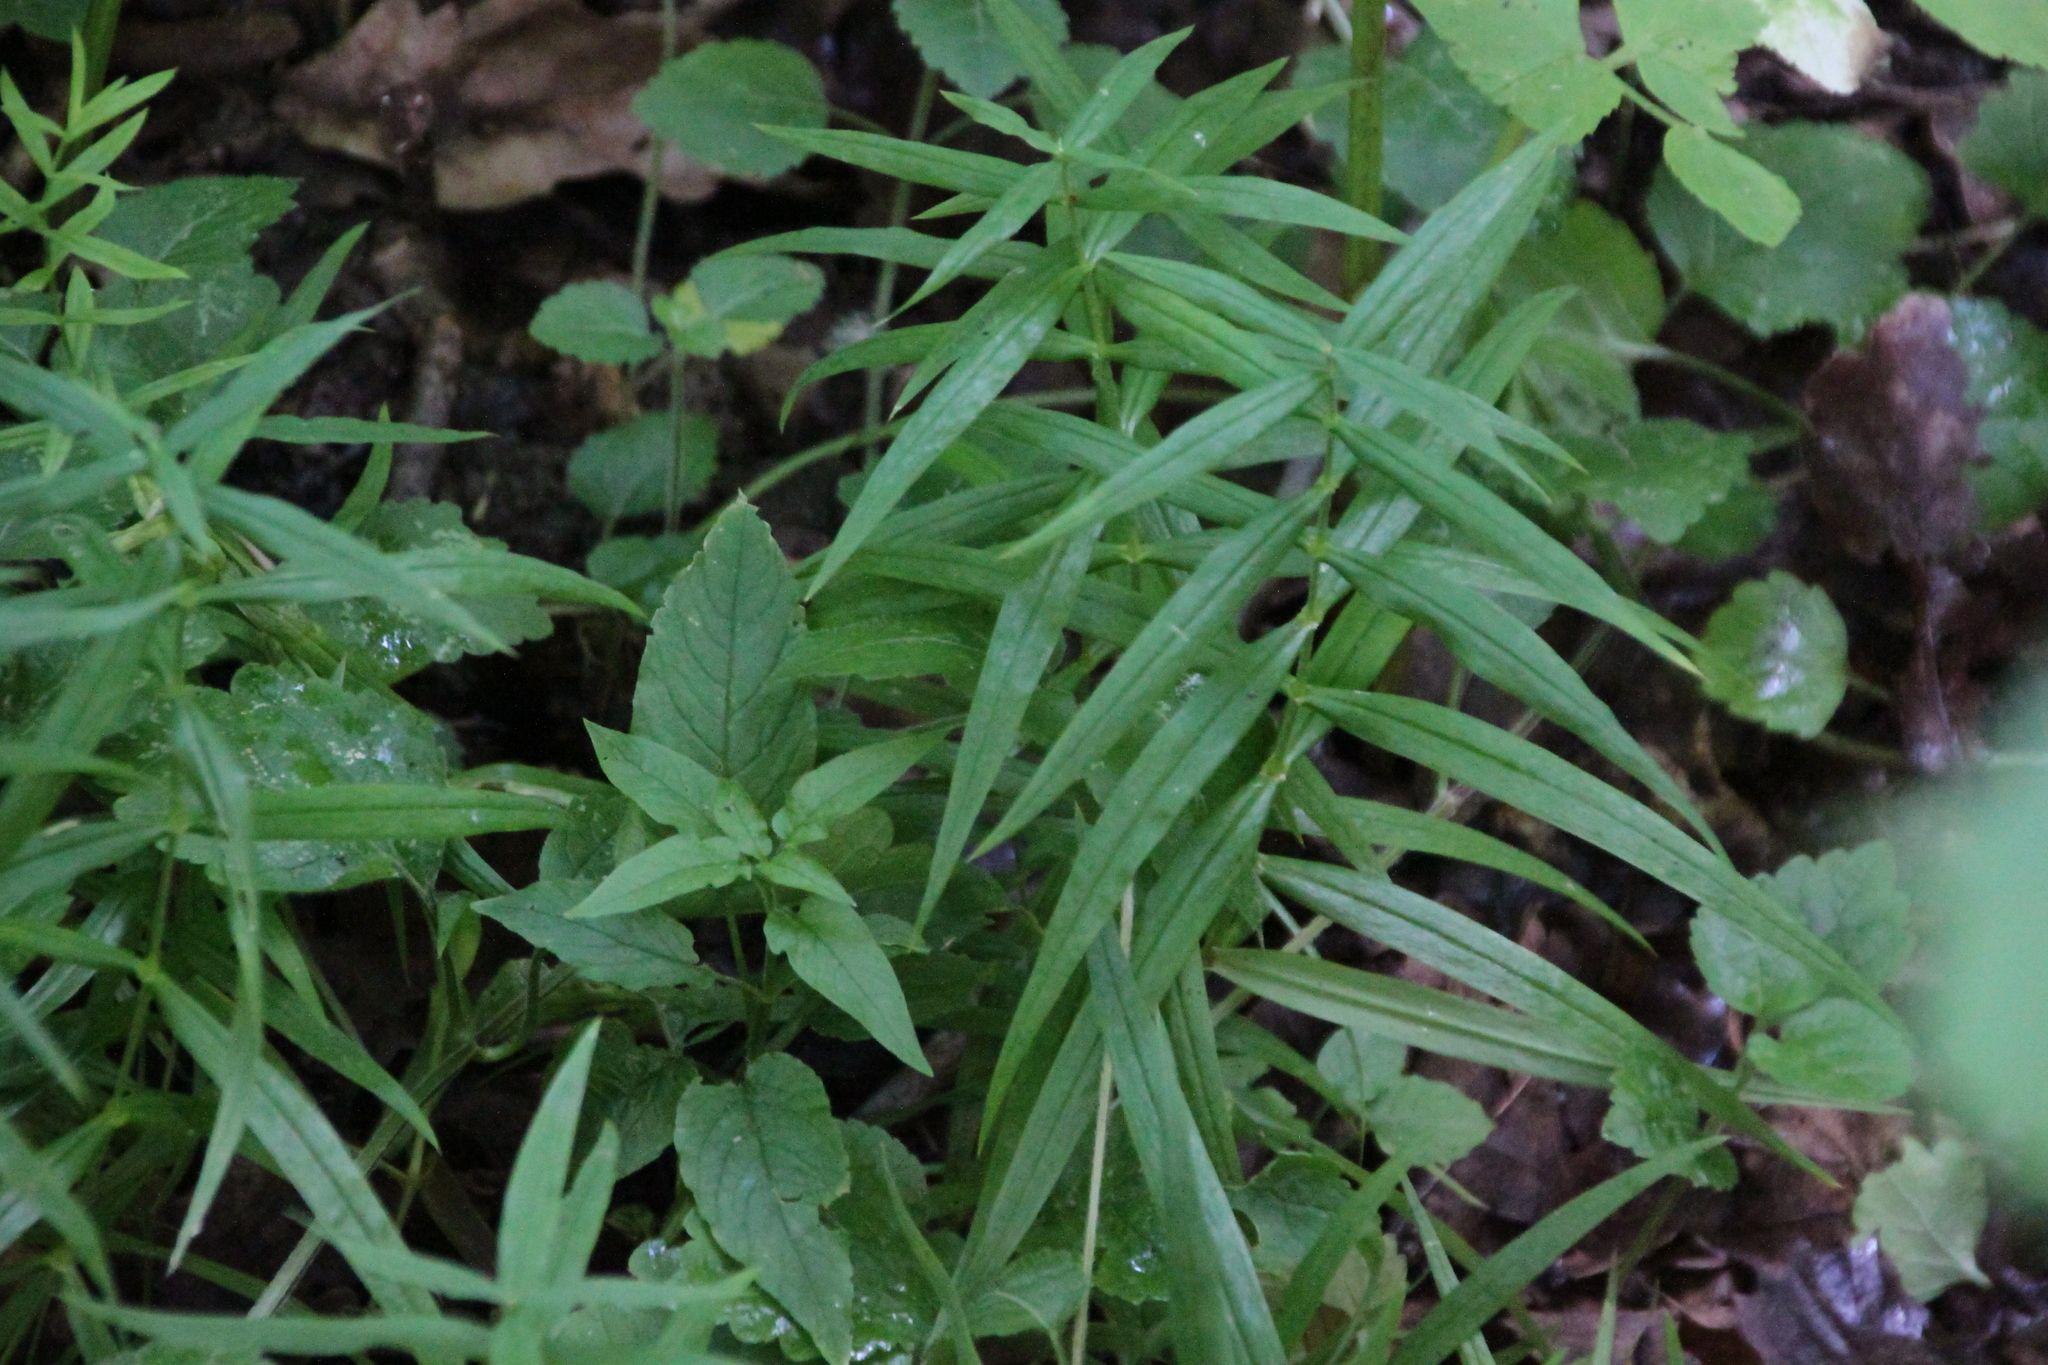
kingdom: Plantae
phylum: Tracheophyta
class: Magnoliopsida
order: Caryophyllales
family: Caryophyllaceae
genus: Rabelera
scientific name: Rabelera holostea
